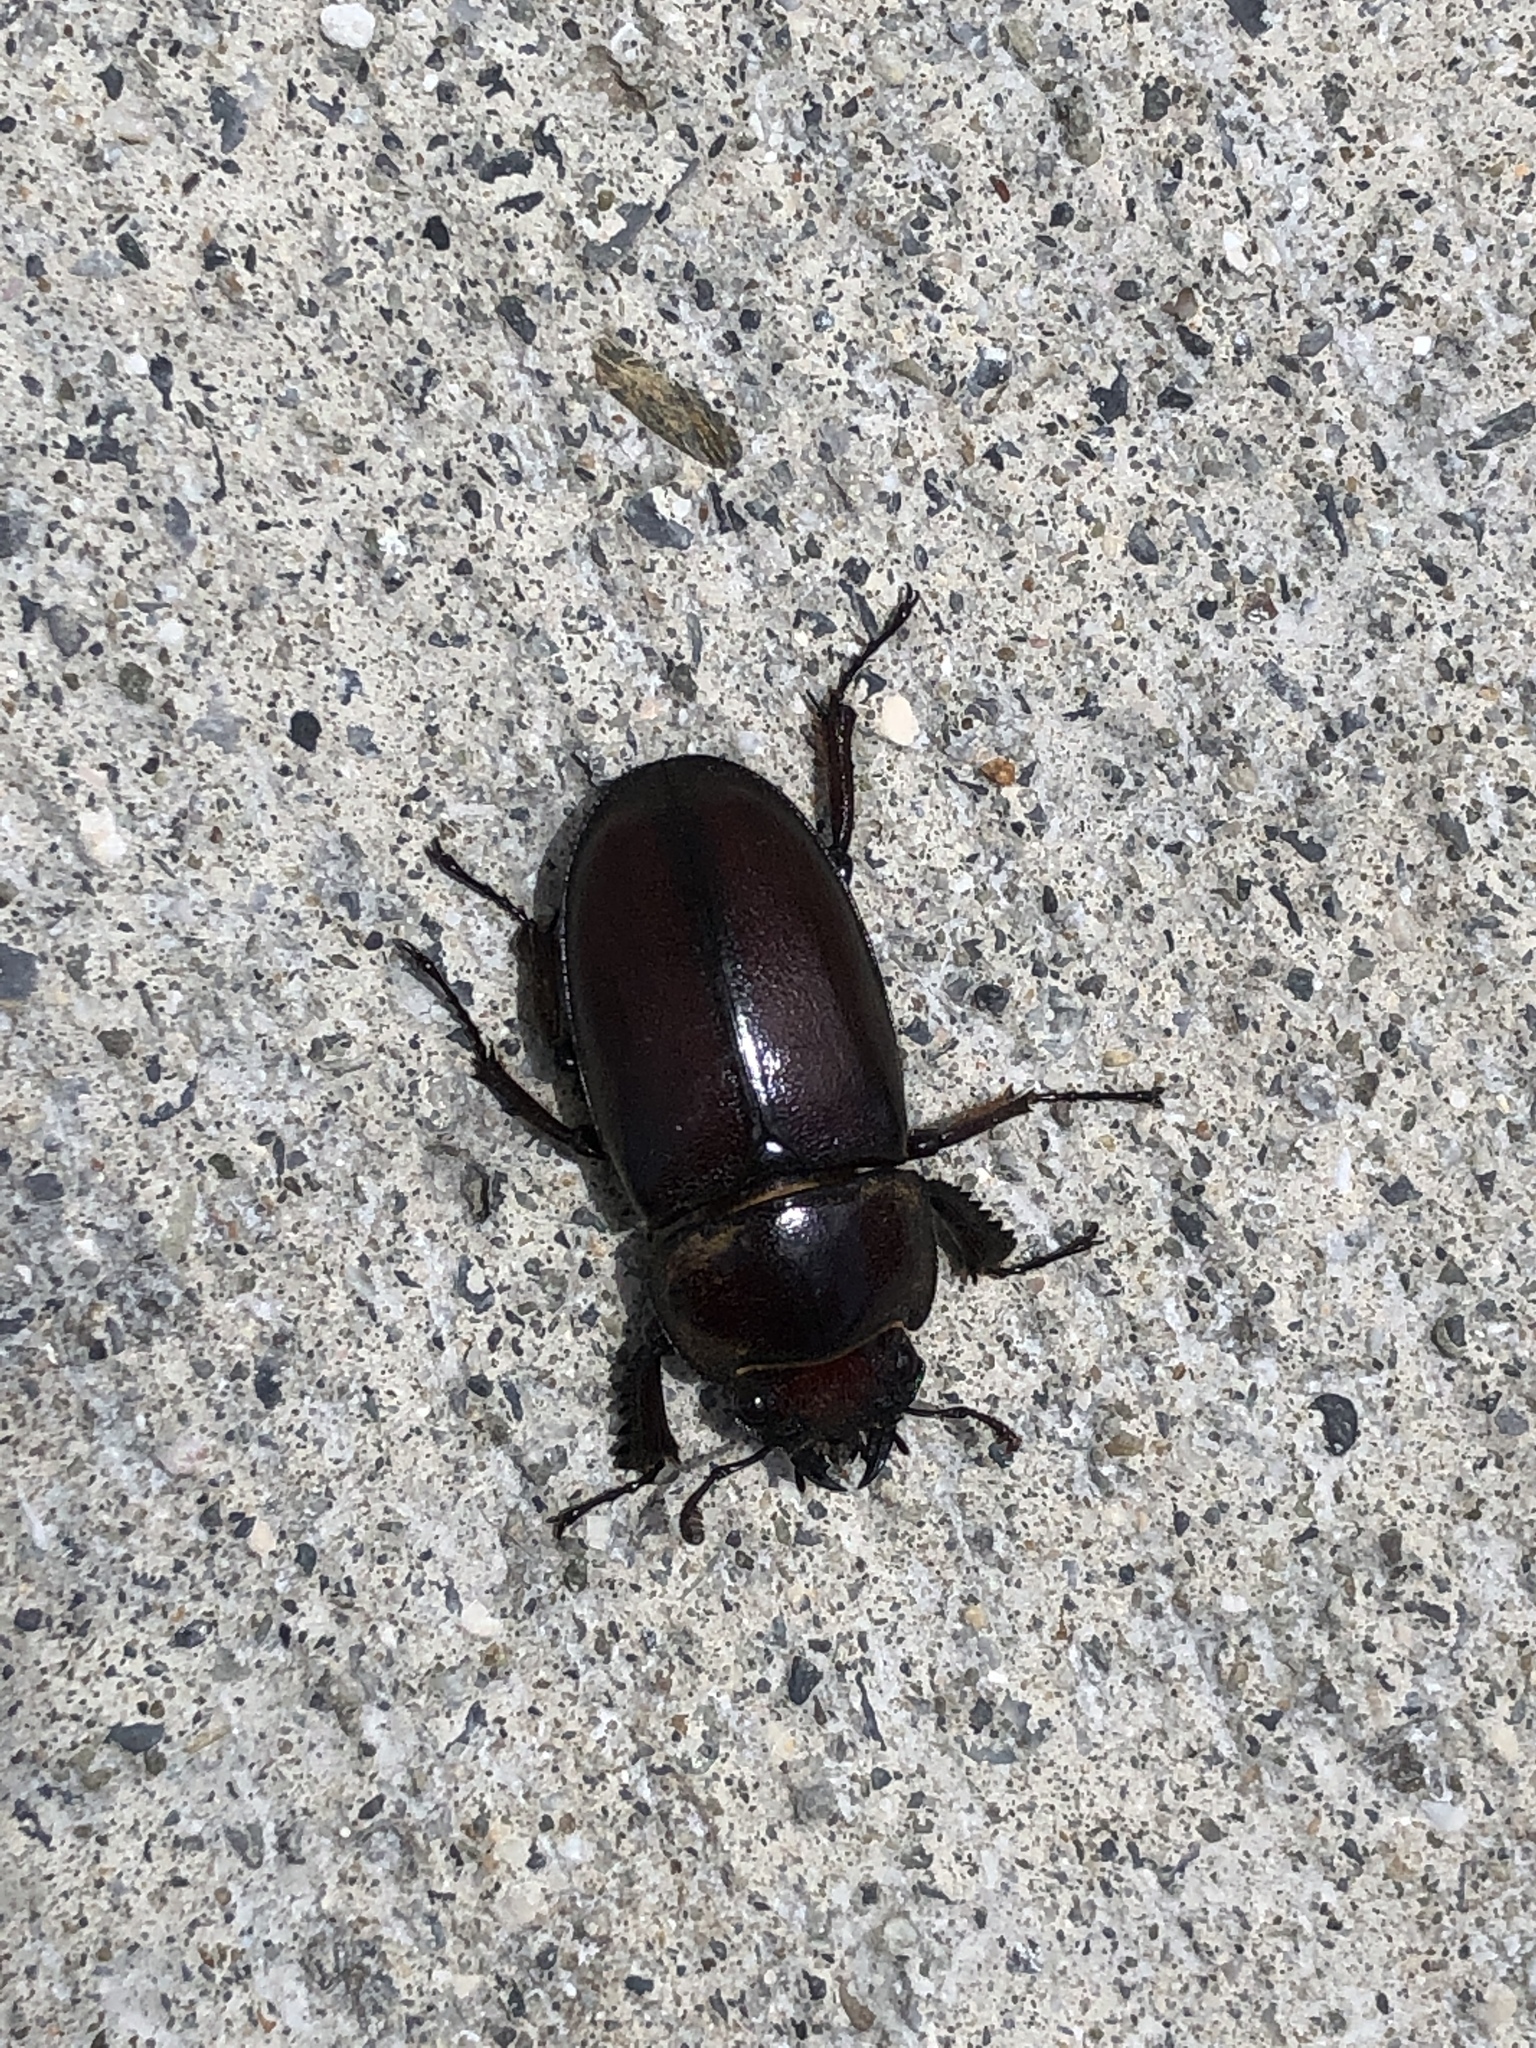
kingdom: Animalia
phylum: Arthropoda
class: Insecta
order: Coleoptera
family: Lucanidae
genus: Prosopocoilus
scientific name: Prosopocoilus dissimilis
